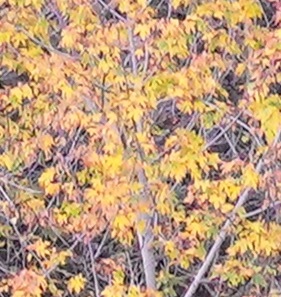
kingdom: Plantae
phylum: Tracheophyta
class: Magnoliopsida
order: Sapindales
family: Sapindaceae
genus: Acer
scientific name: Acer macrophyllum
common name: Oregon maple
